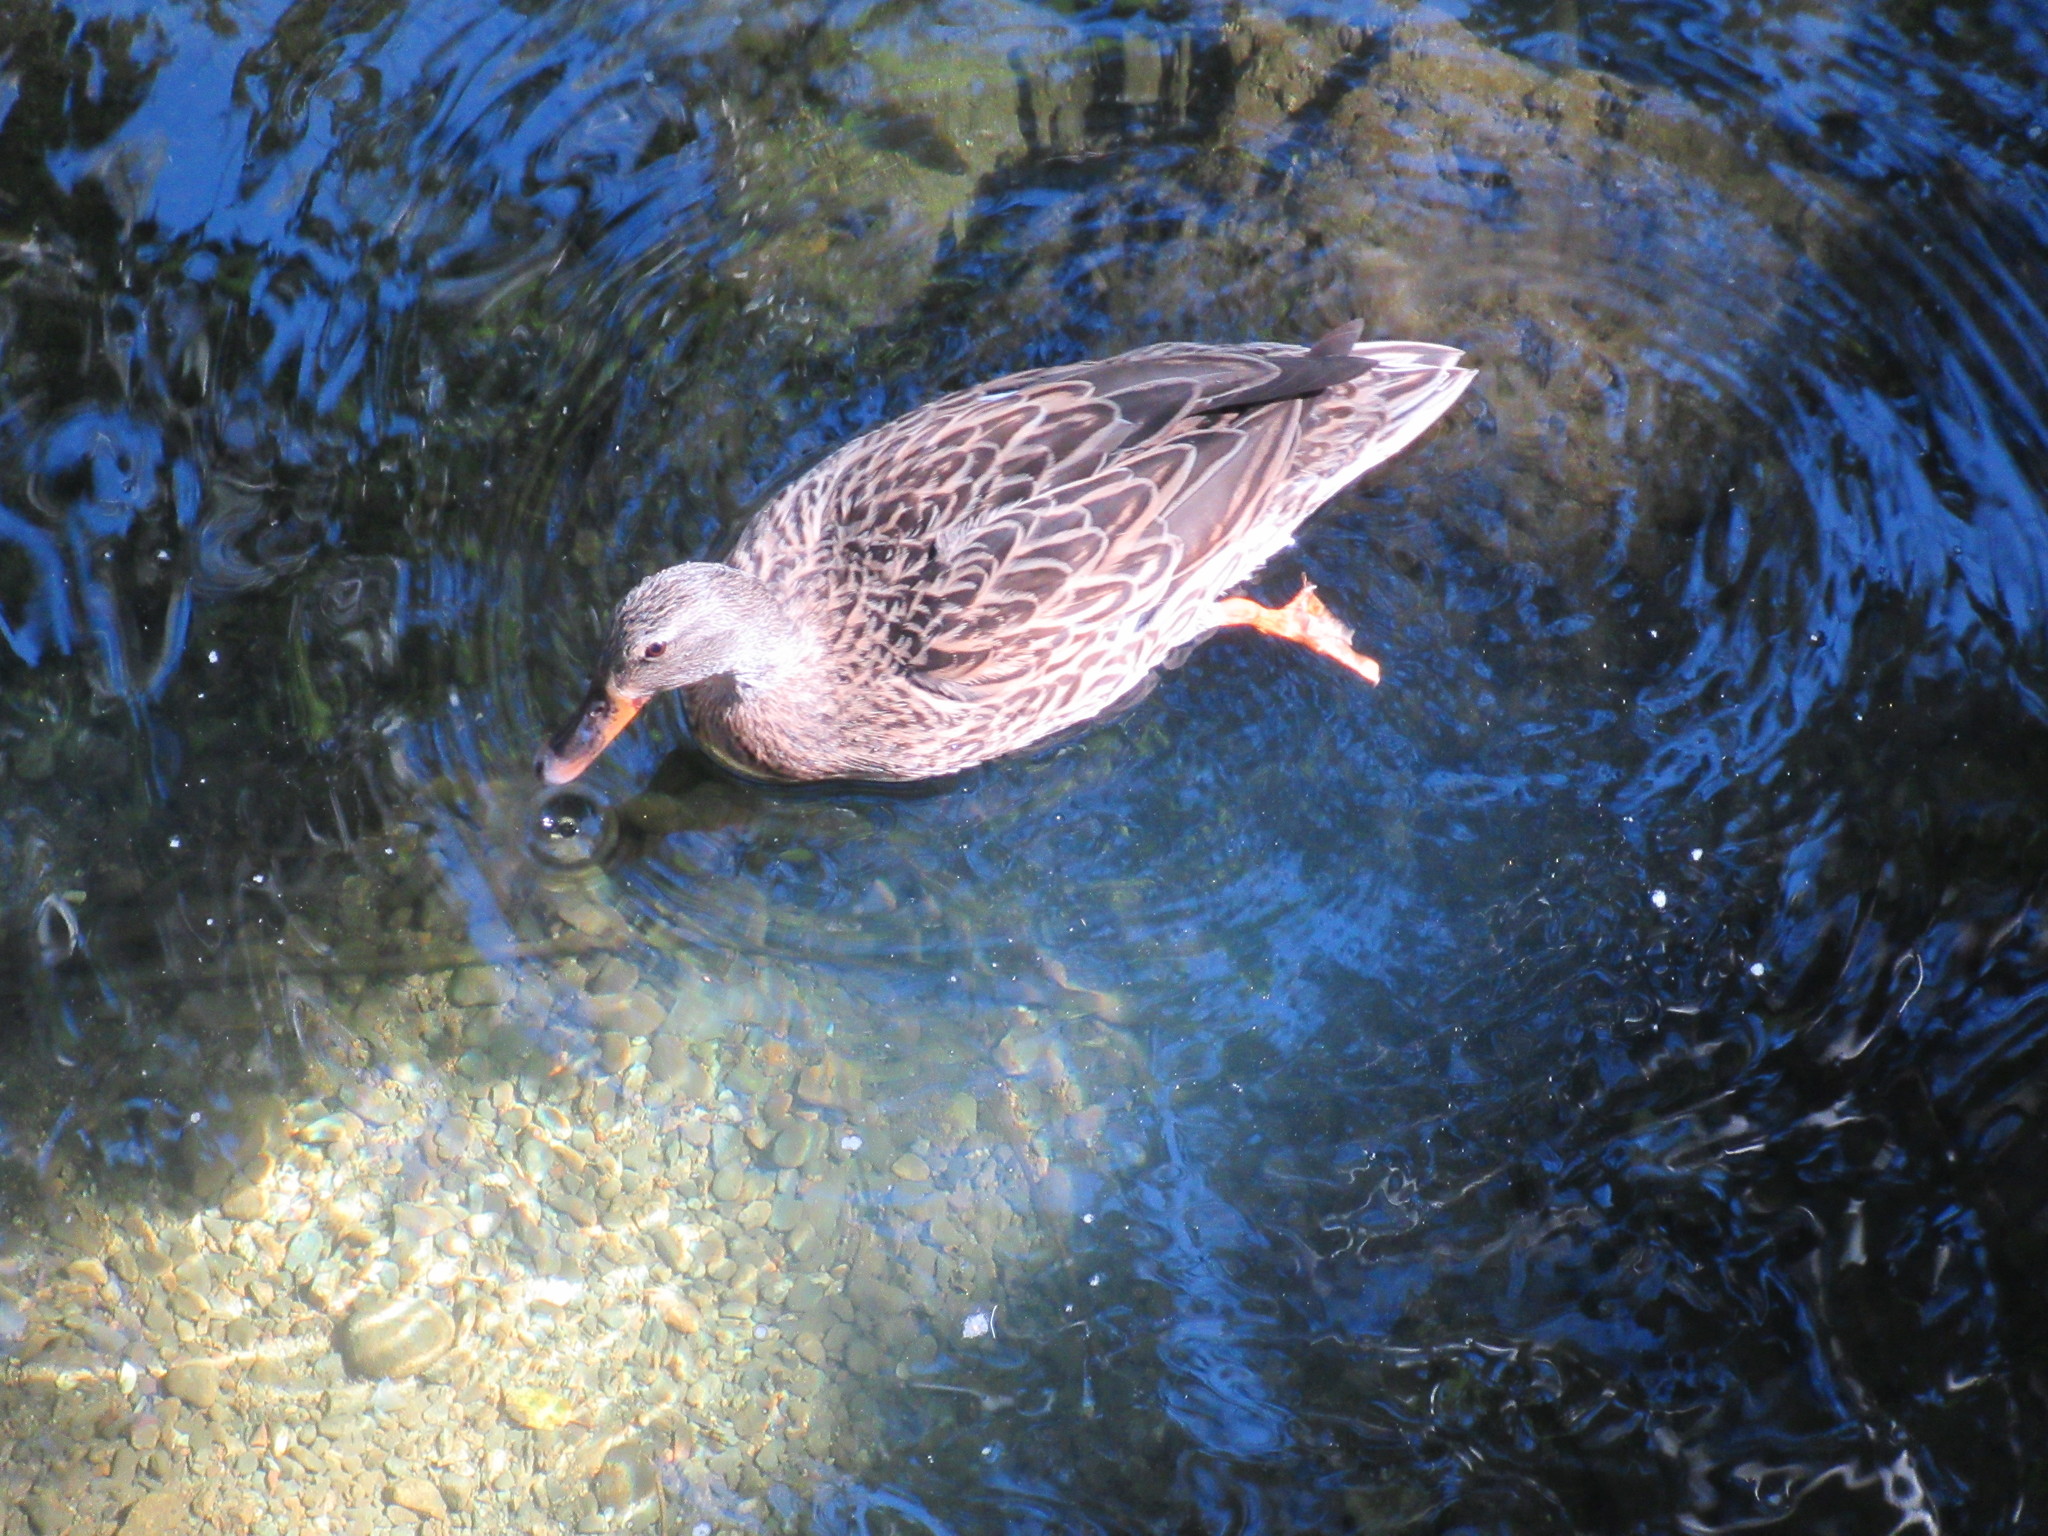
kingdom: Animalia
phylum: Chordata
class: Aves
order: Anseriformes
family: Anatidae
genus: Anas
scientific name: Anas platyrhynchos
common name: Mallard
